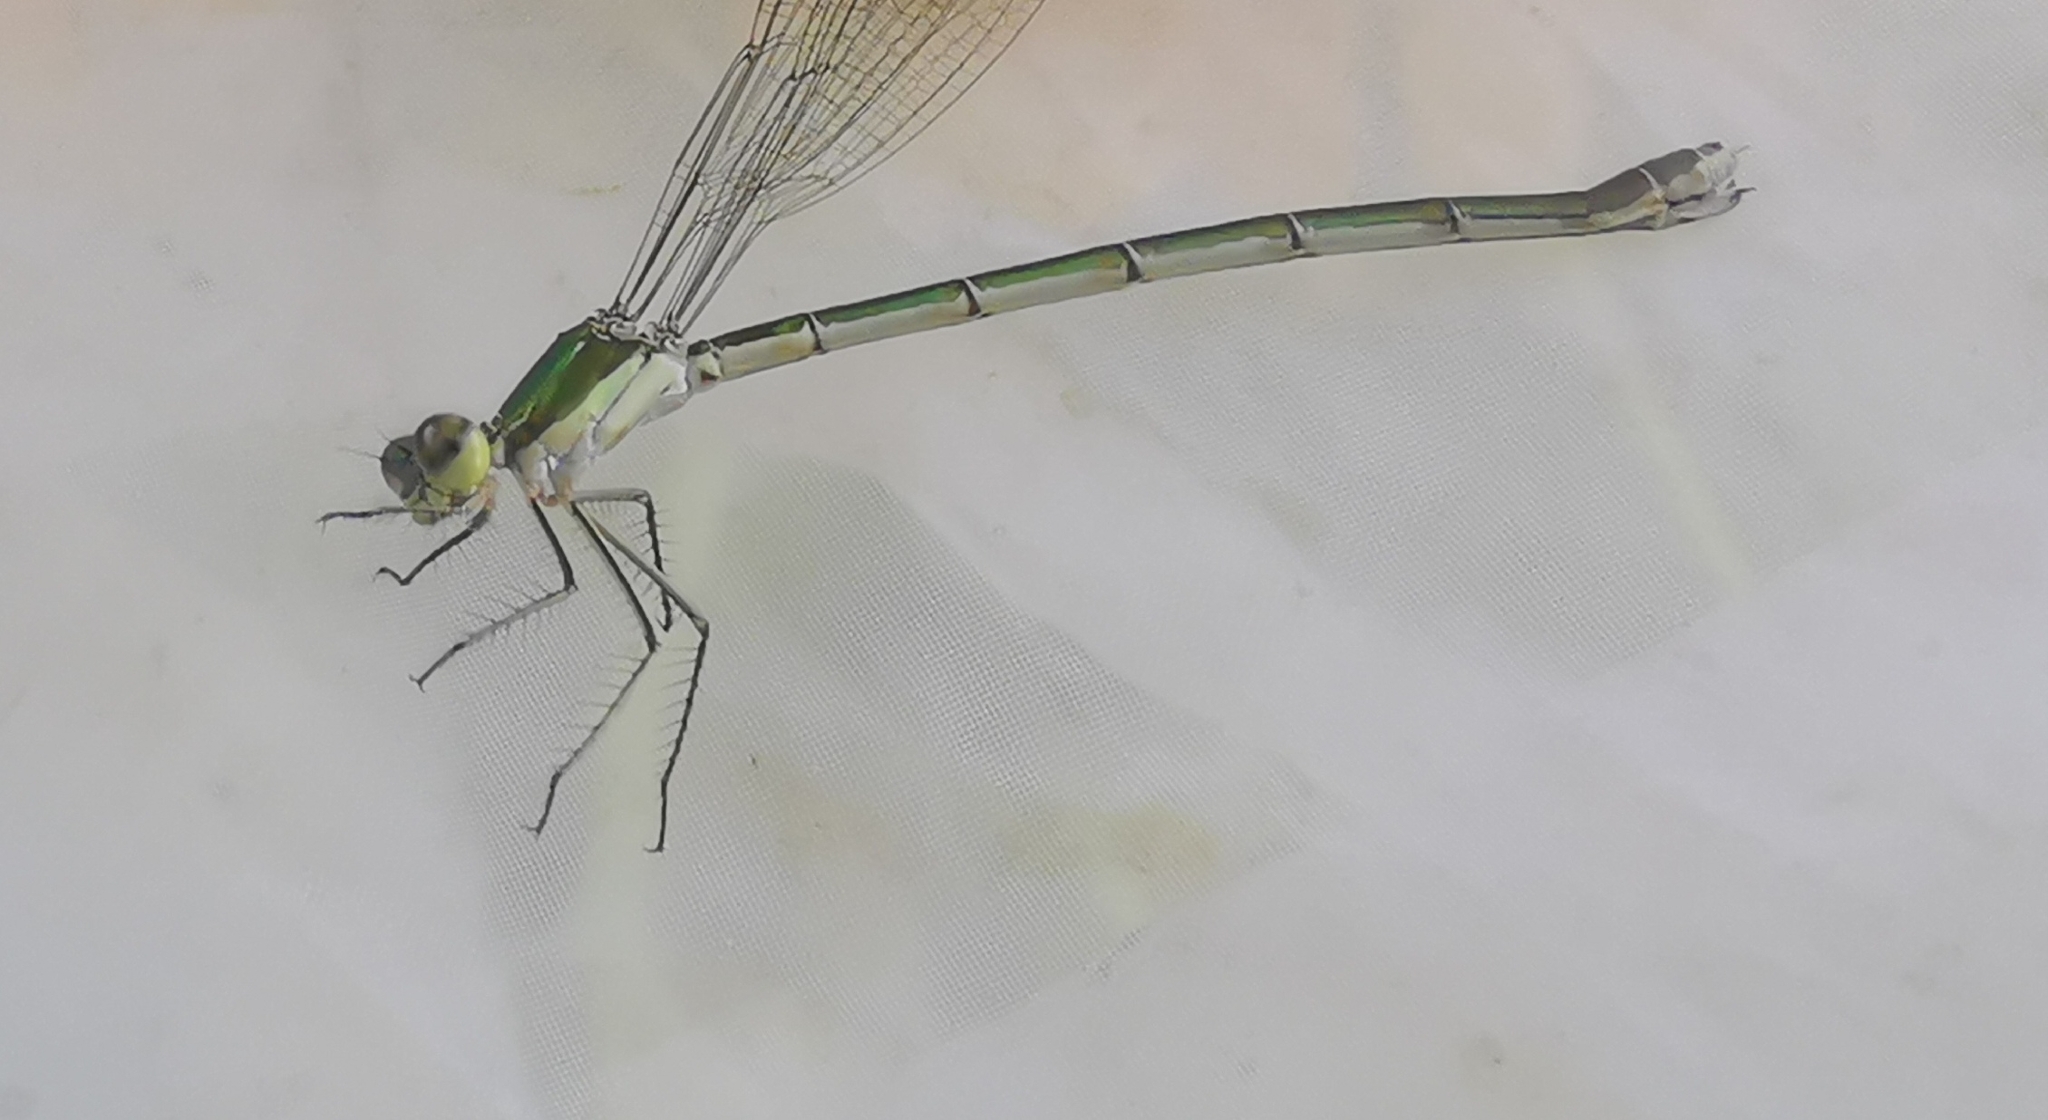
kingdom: Animalia
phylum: Arthropoda
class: Insecta
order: Odonata
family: Lestidae
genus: Lestes
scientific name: Lestes virens
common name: Small emerald spreadwing
